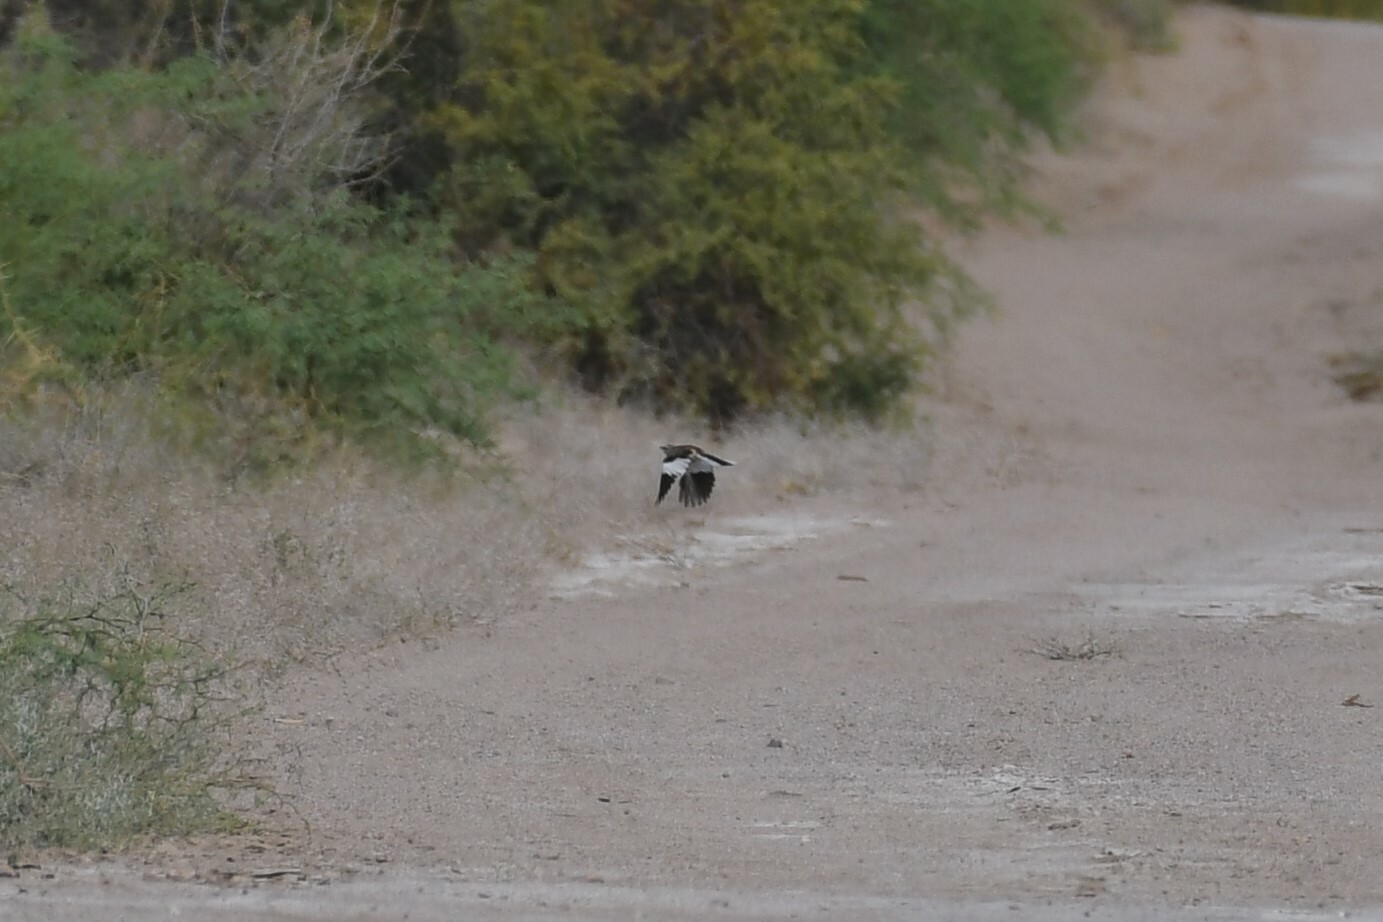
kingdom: Animalia
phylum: Chordata
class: Aves
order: Passeriformes
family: Mimidae
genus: Mimus
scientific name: Mimus triurus
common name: White-banded mockingbird
